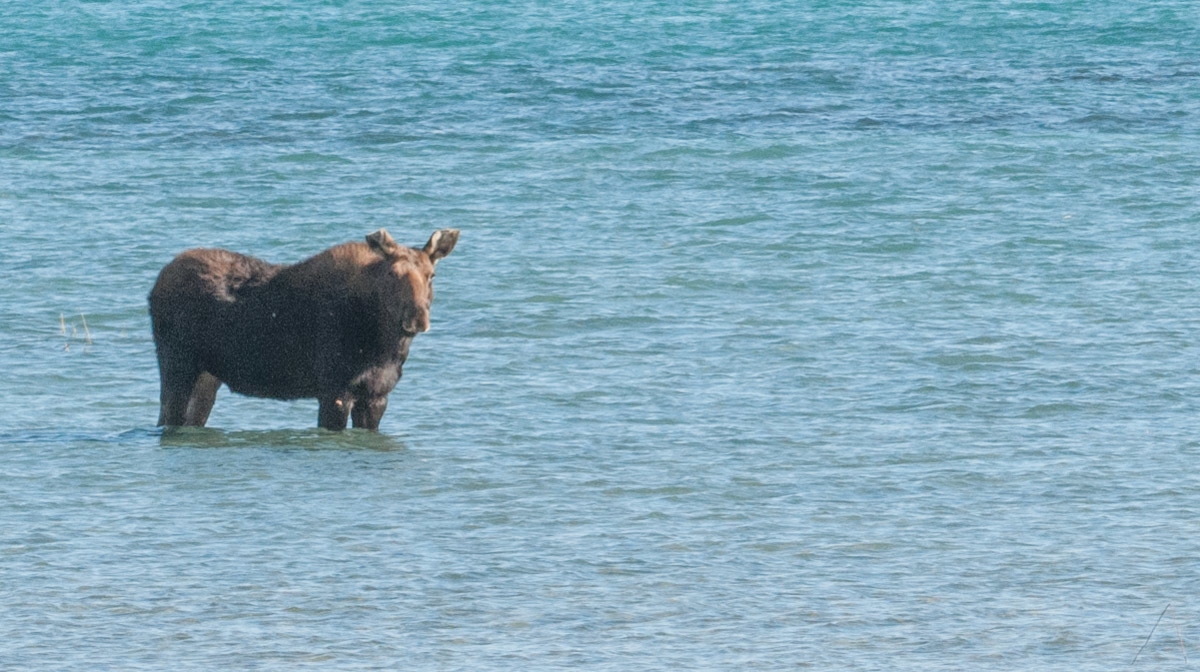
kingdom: Animalia
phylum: Chordata
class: Mammalia
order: Artiodactyla
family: Cervidae
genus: Alces
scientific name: Alces alces
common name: Moose
